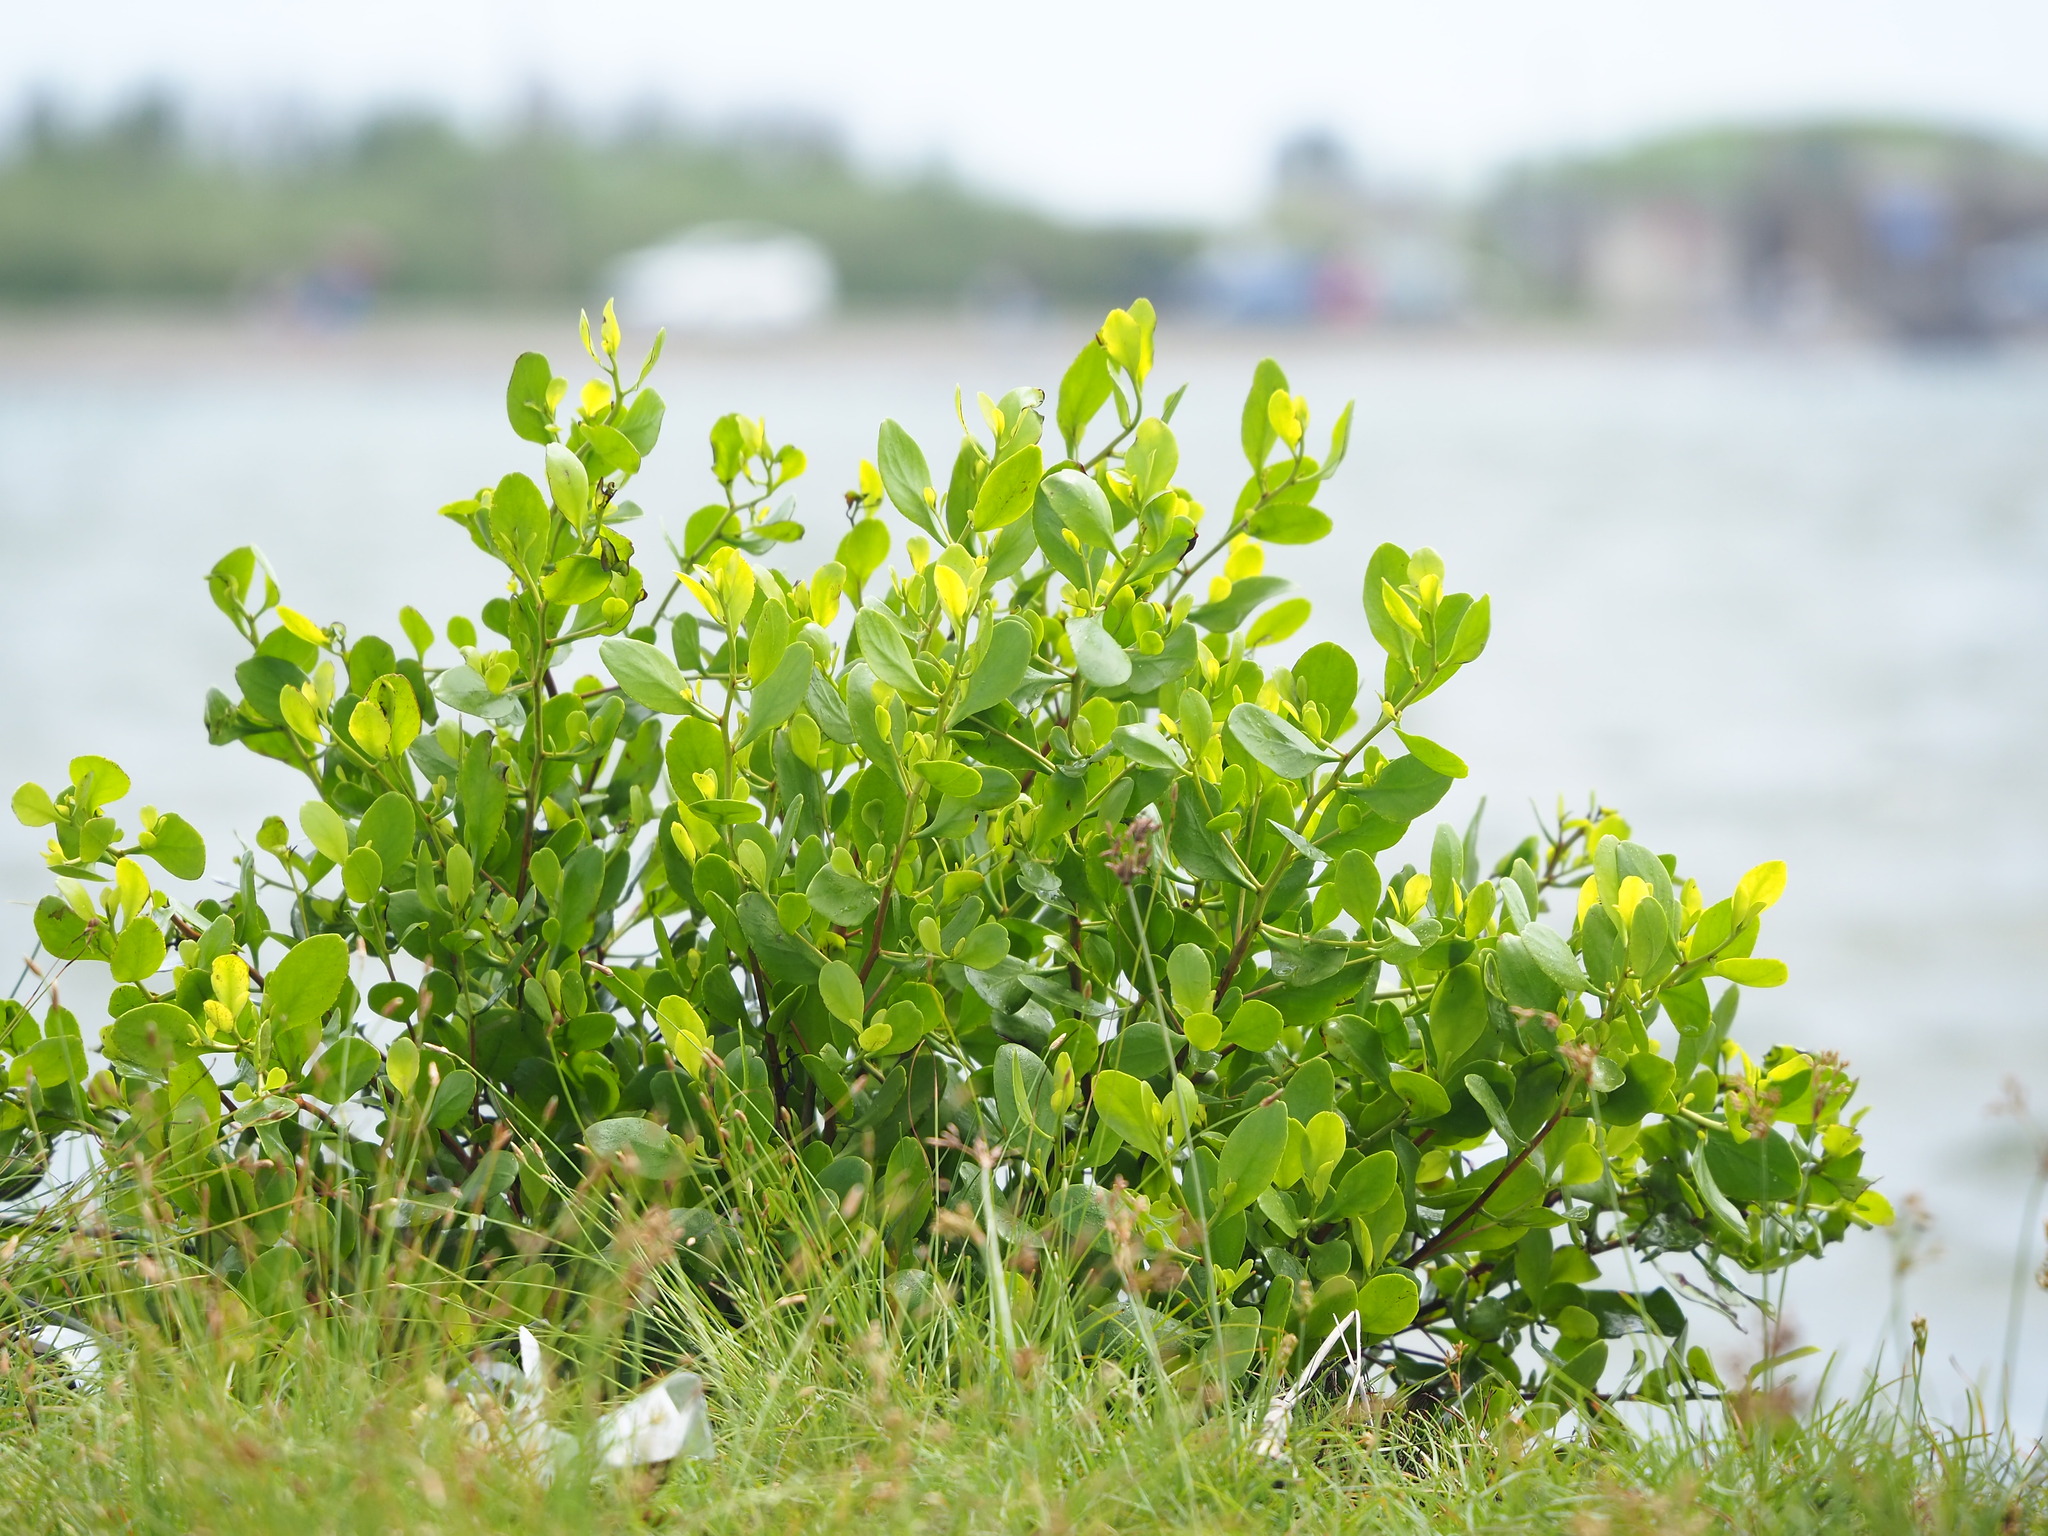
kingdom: Plantae
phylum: Tracheophyta
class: Magnoliopsida
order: Myrtales
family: Combretaceae
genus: Lumnitzera
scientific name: Lumnitzera racemosa
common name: White-flowered black mangrove
